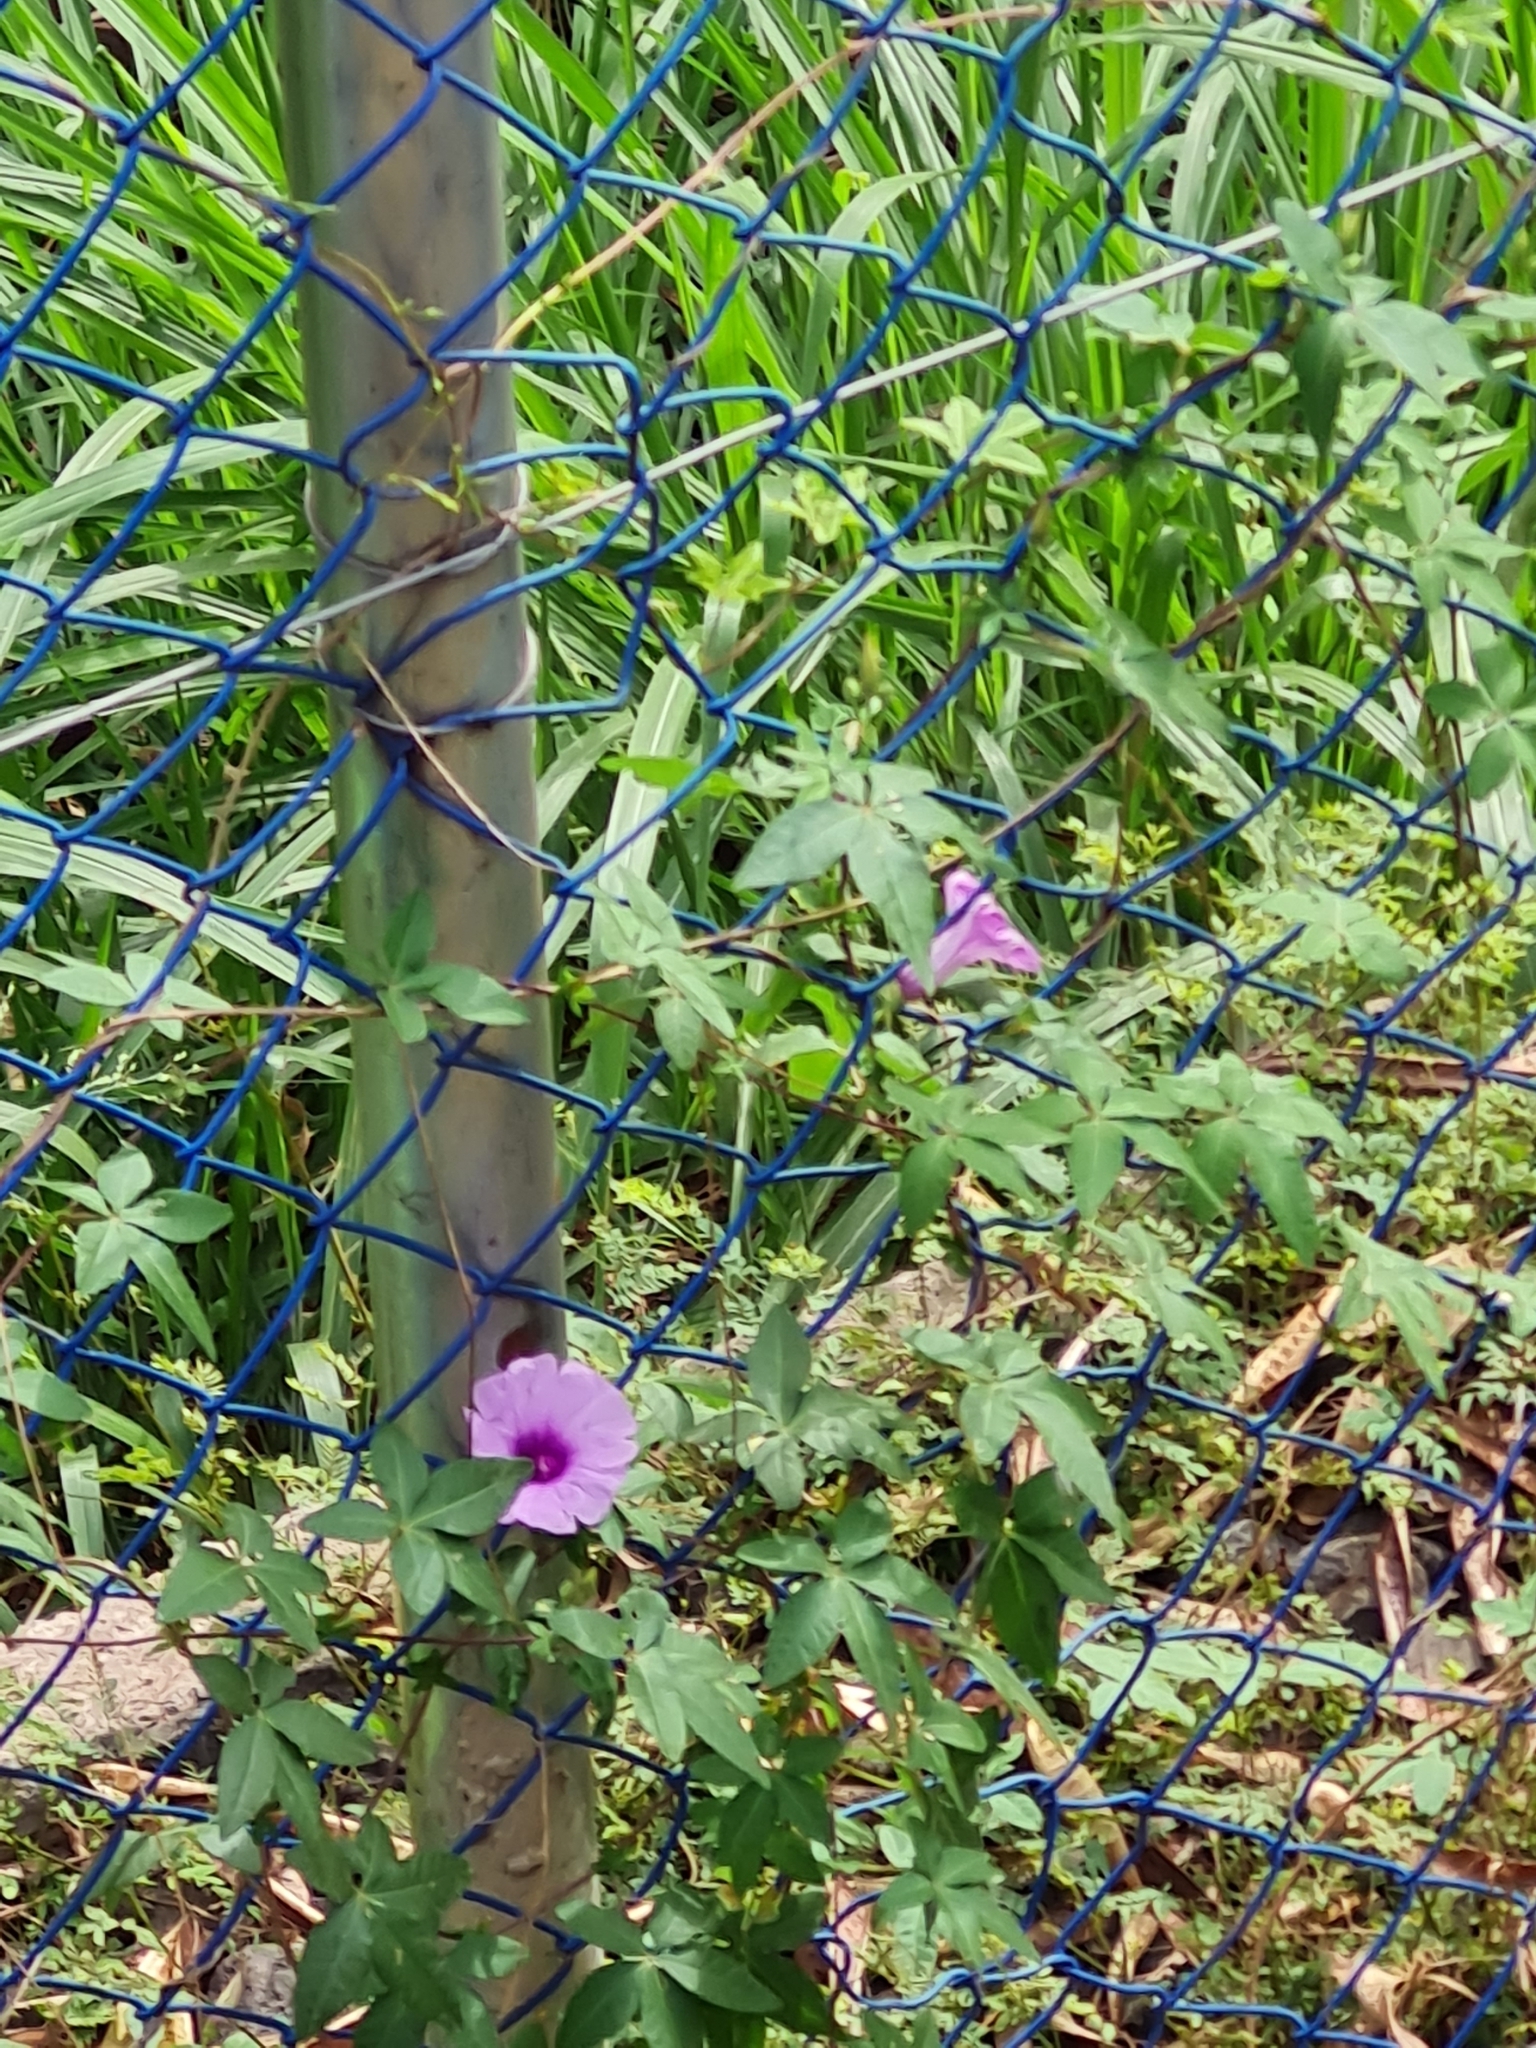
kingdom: Plantae
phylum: Tracheophyta
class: Magnoliopsida
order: Solanales
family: Convolvulaceae
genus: Ipomoea
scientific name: Ipomoea cairica
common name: Mile a minute vine
